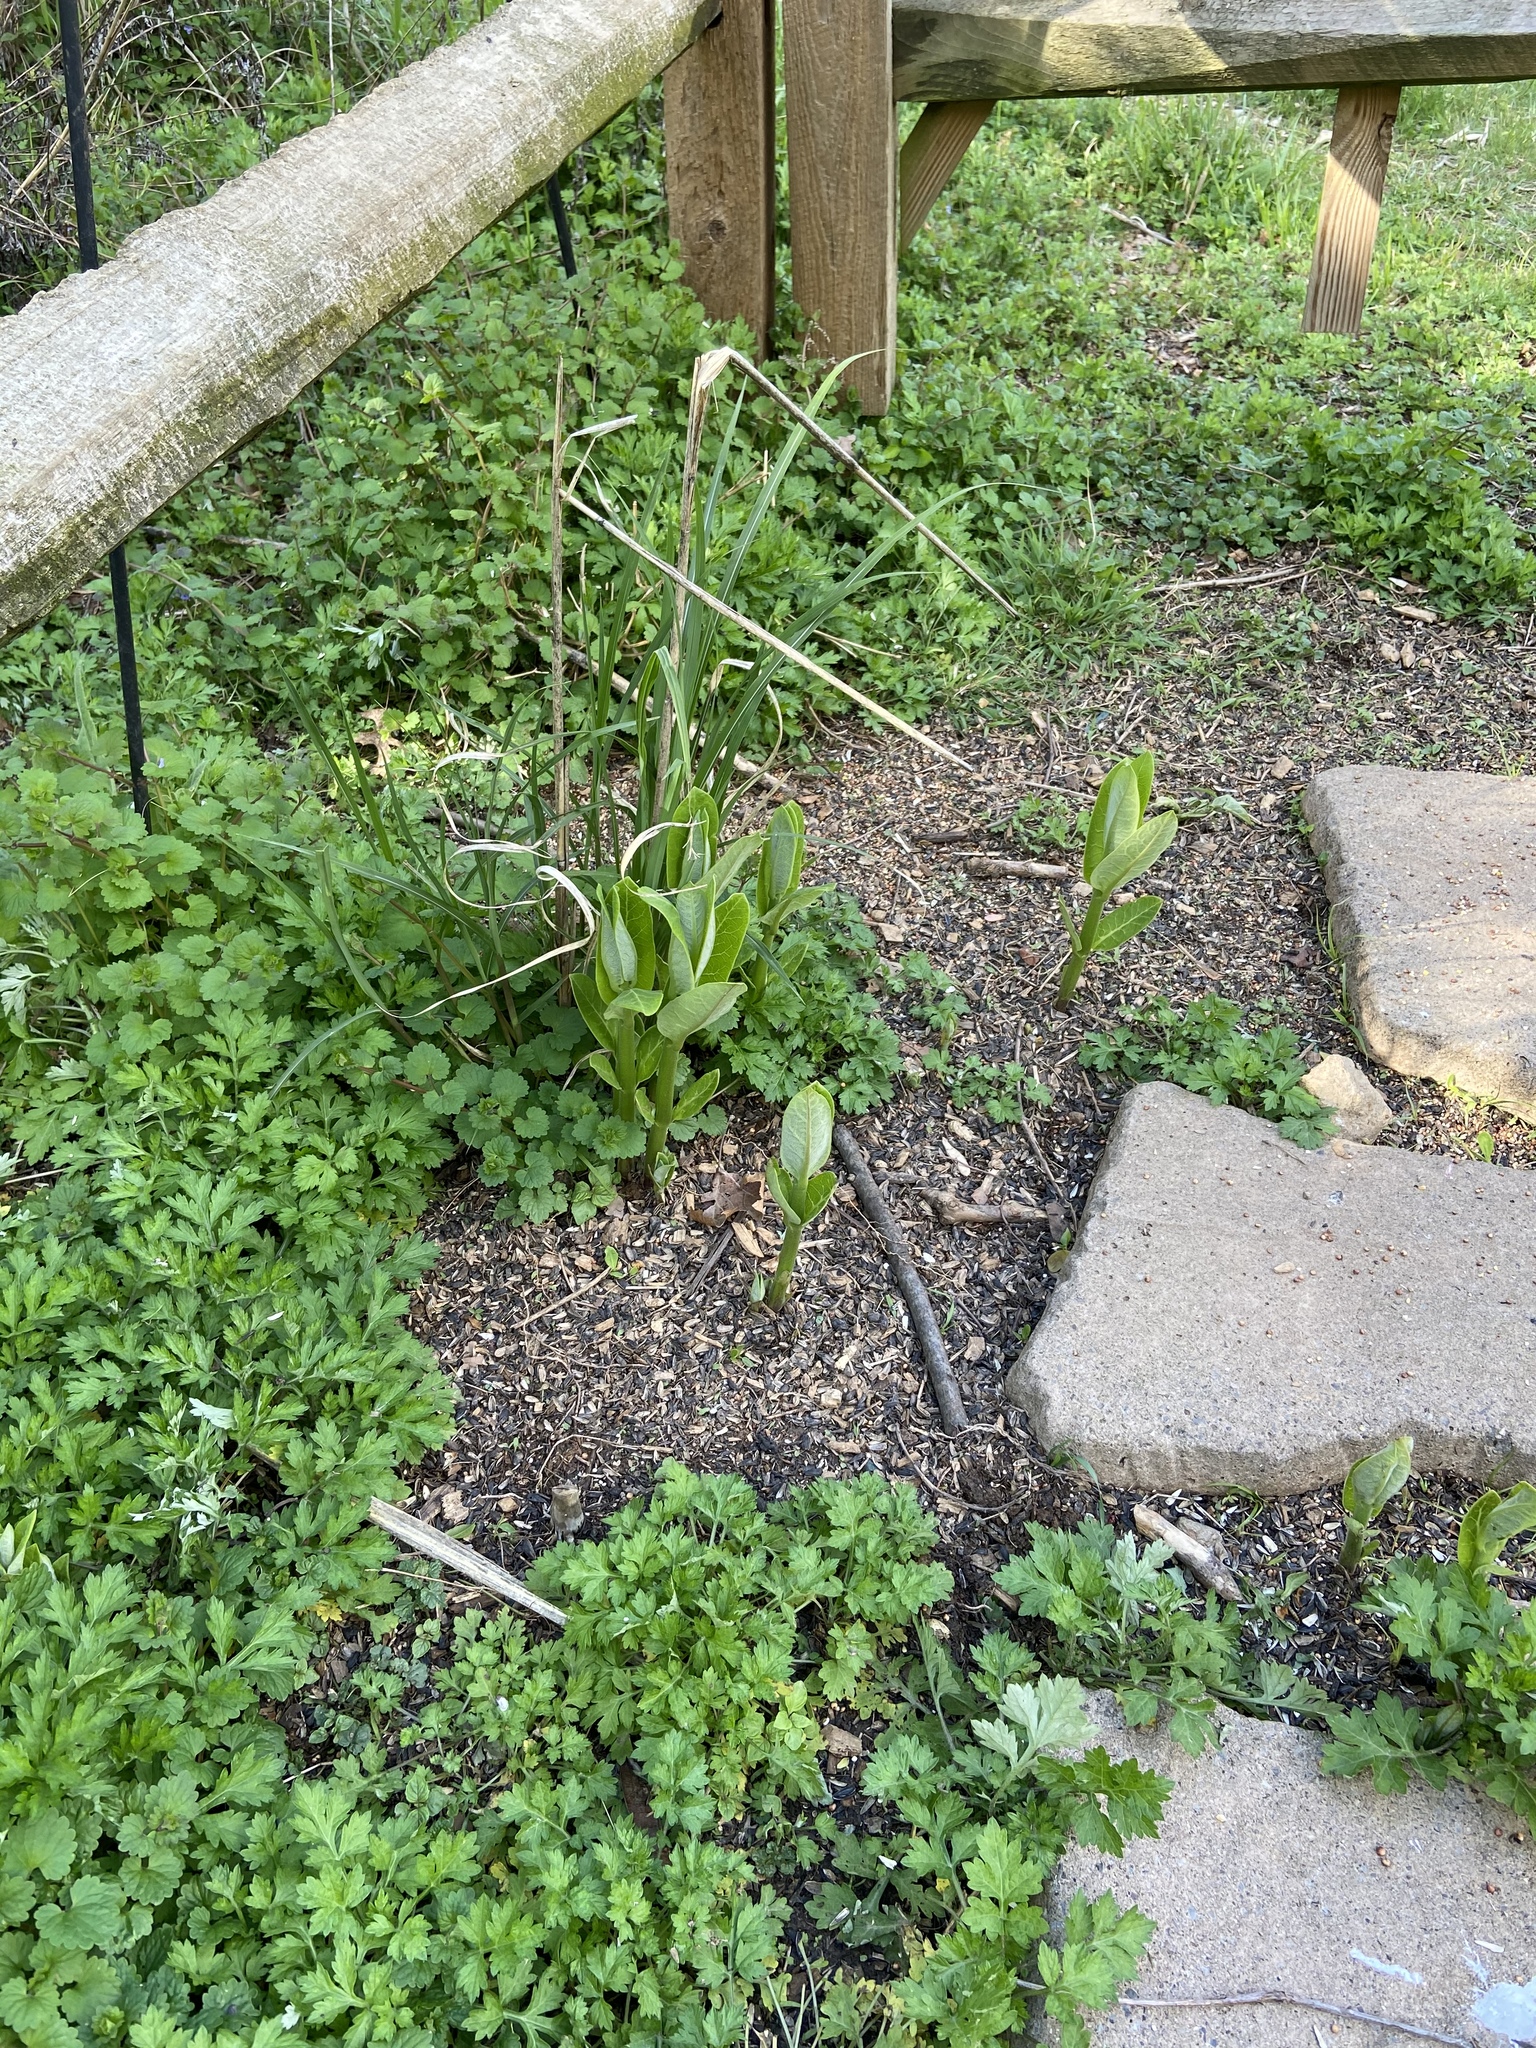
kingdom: Plantae
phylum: Tracheophyta
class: Magnoliopsida
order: Gentianales
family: Apocynaceae
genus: Asclepias
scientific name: Asclepias syriaca
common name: Common milkweed
